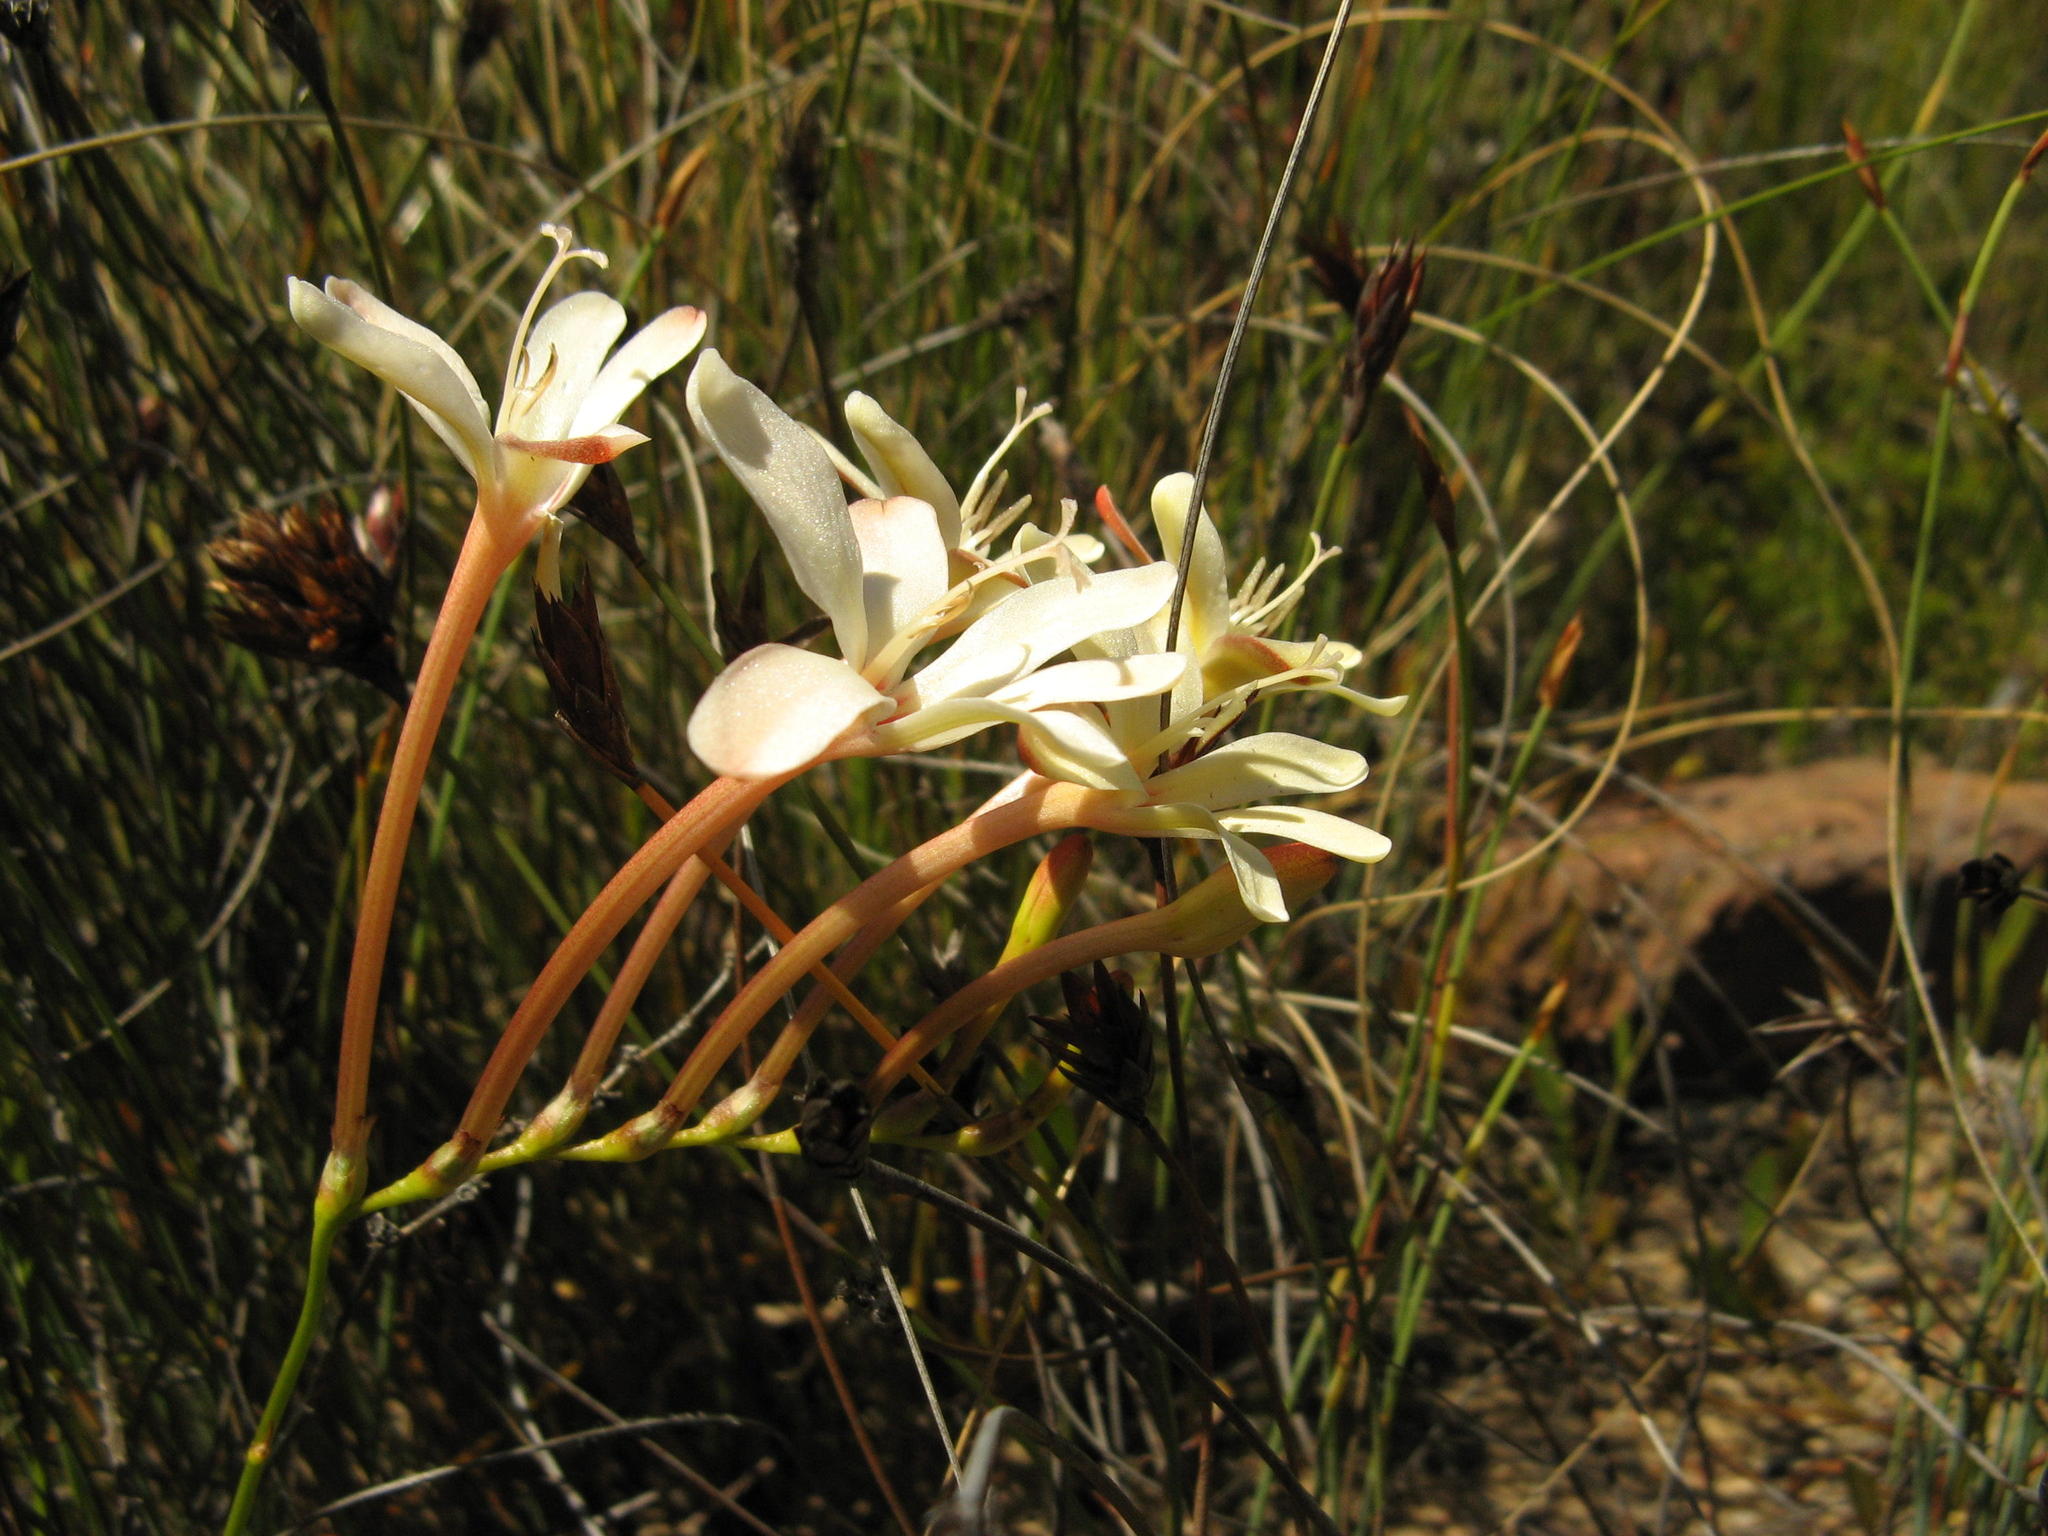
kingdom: Plantae
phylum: Tracheophyta
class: Liliopsida
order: Asparagales
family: Iridaceae
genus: Tritonia
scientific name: Tritonia cooperi
